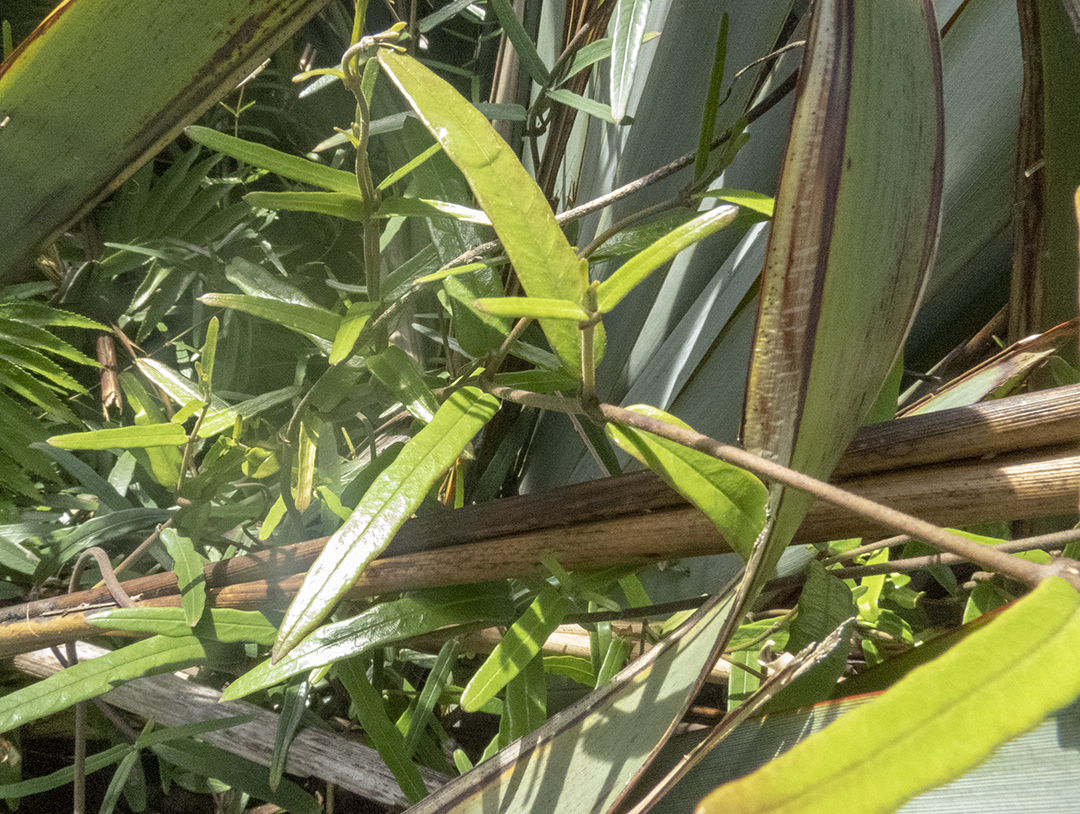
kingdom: Plantae
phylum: Tracheophyta
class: Magnoliopsida
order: Gentianales
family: Apocynaceae
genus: Parsonsia
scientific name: Parsonsia heterophylla
